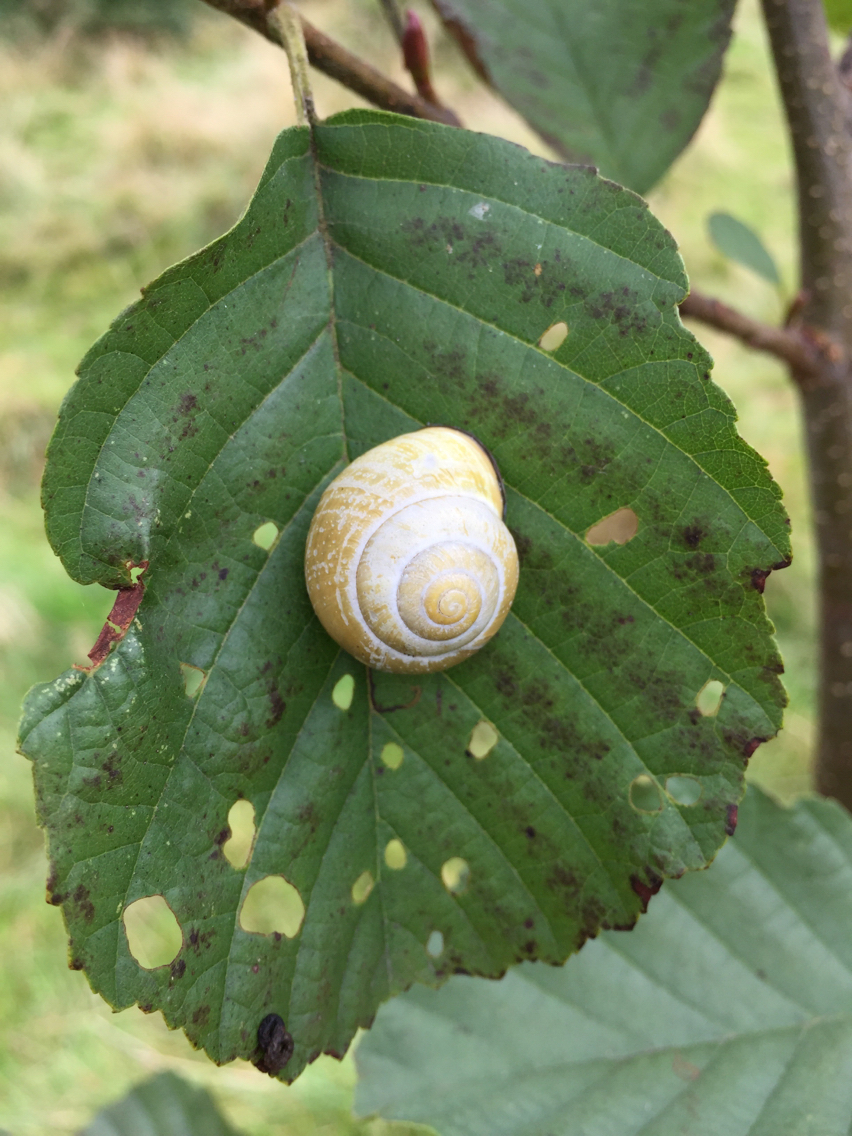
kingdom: Animalia
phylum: Mollusca
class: Gastropoda
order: Stylommatophora
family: Helicidae
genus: Cepaea
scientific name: Cepaea
